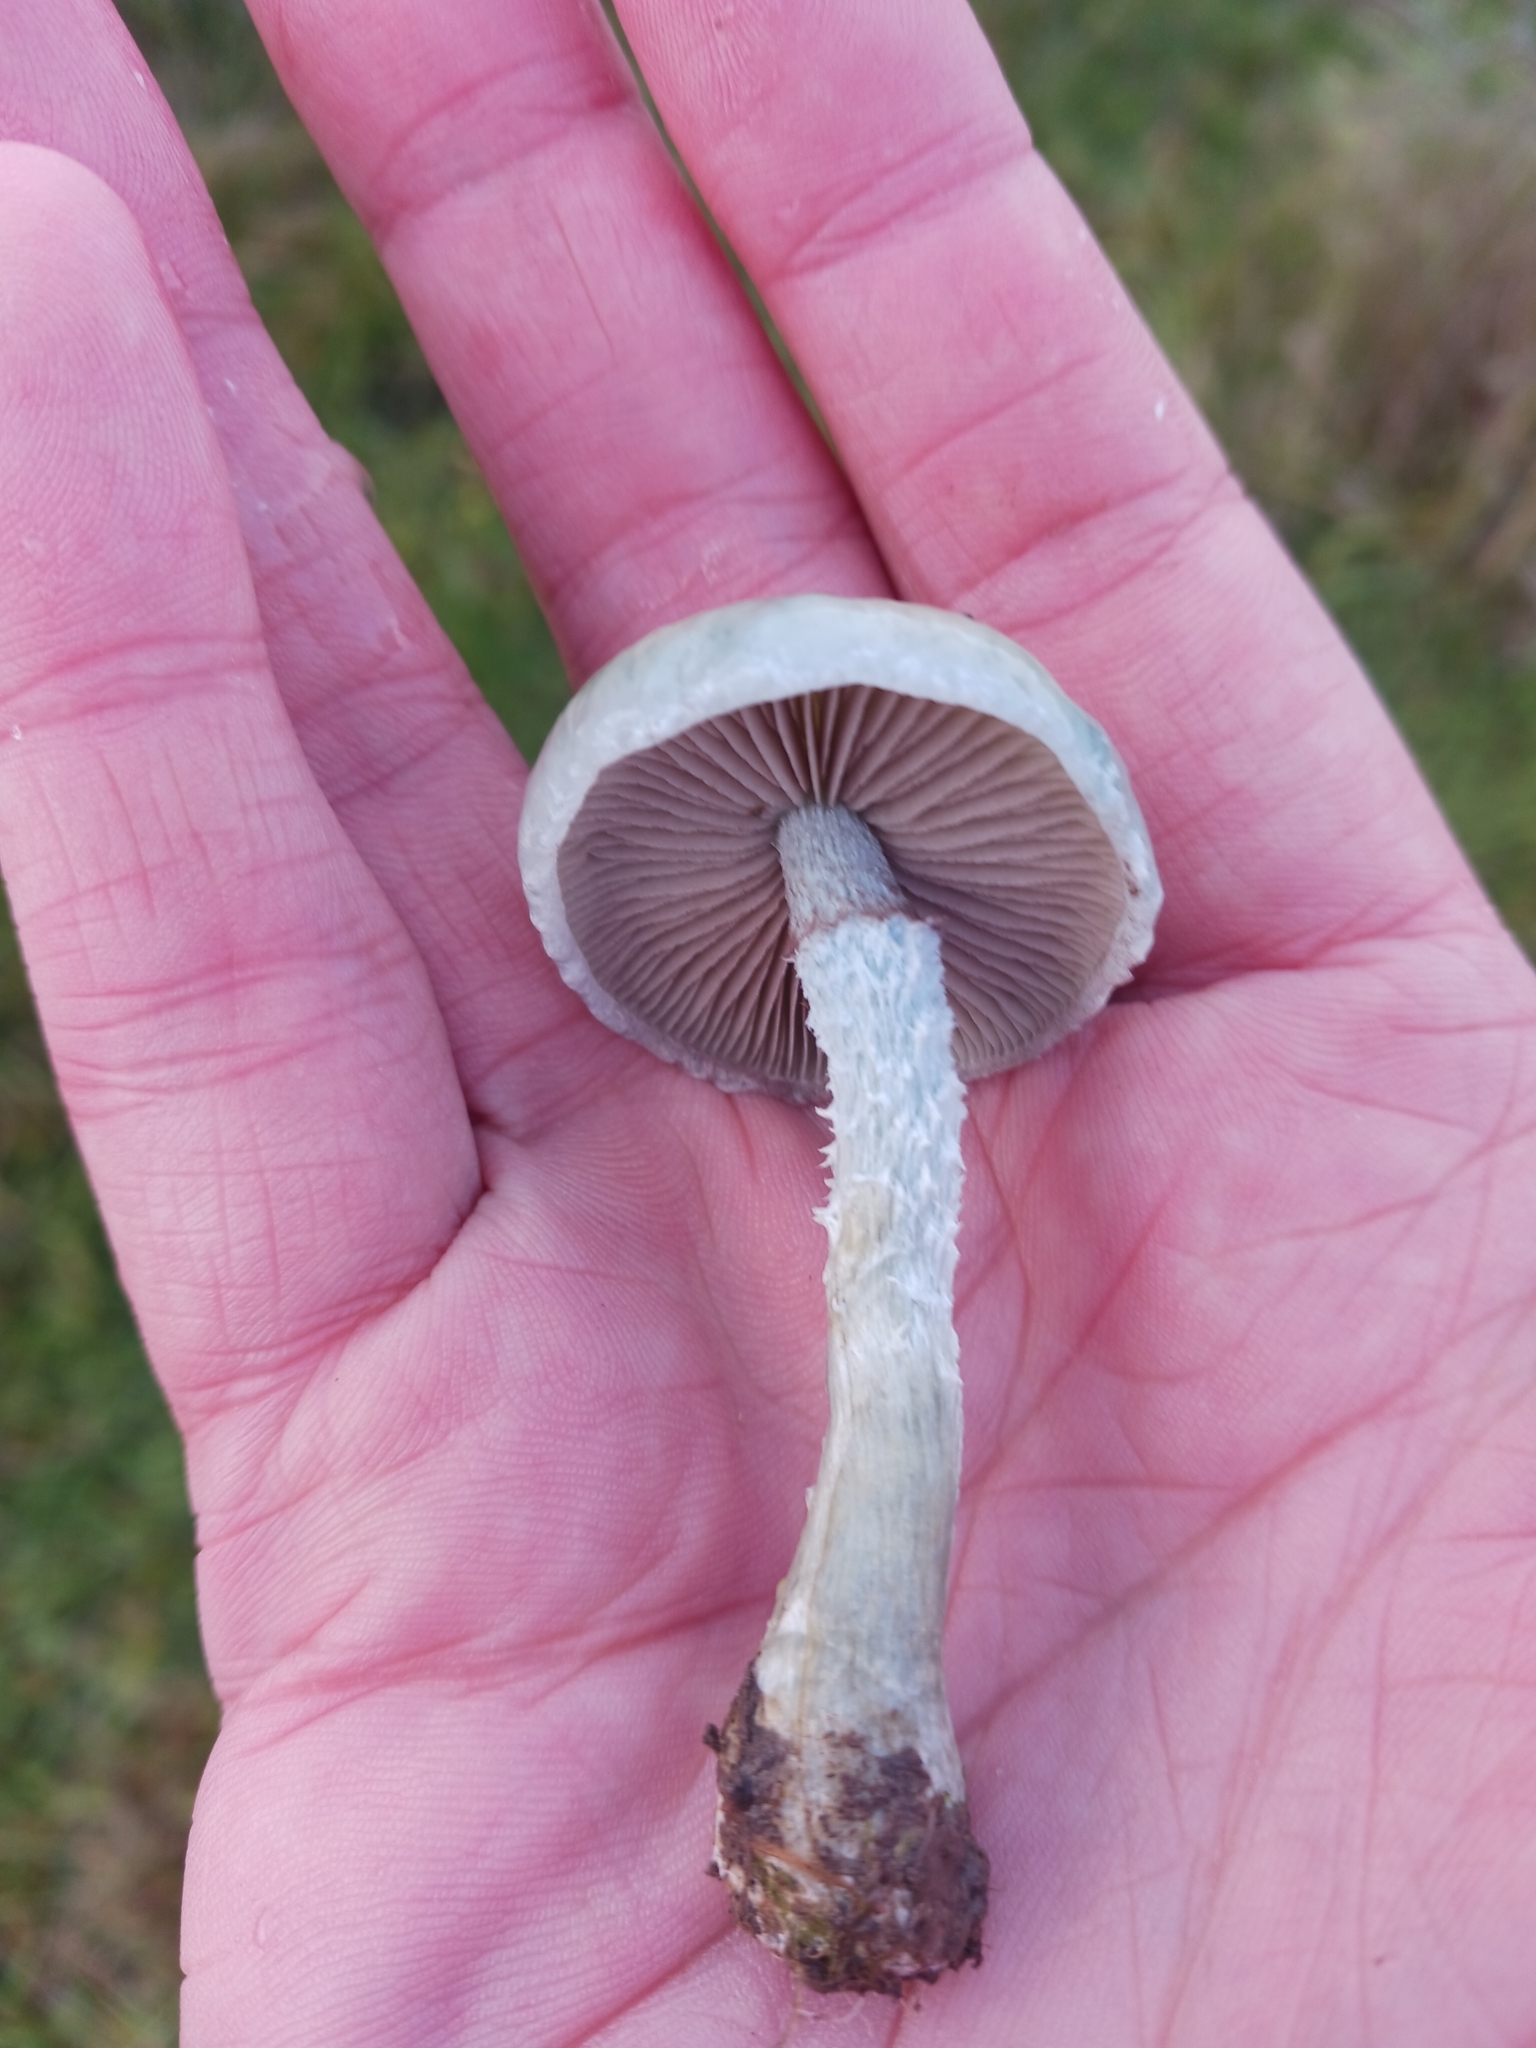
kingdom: Fungi
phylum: Basidiomycota
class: Agaricomycetes
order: Agaricales
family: Strophariaceae
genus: Stropharia
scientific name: Stropharia caerulea
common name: Blue roundhead
